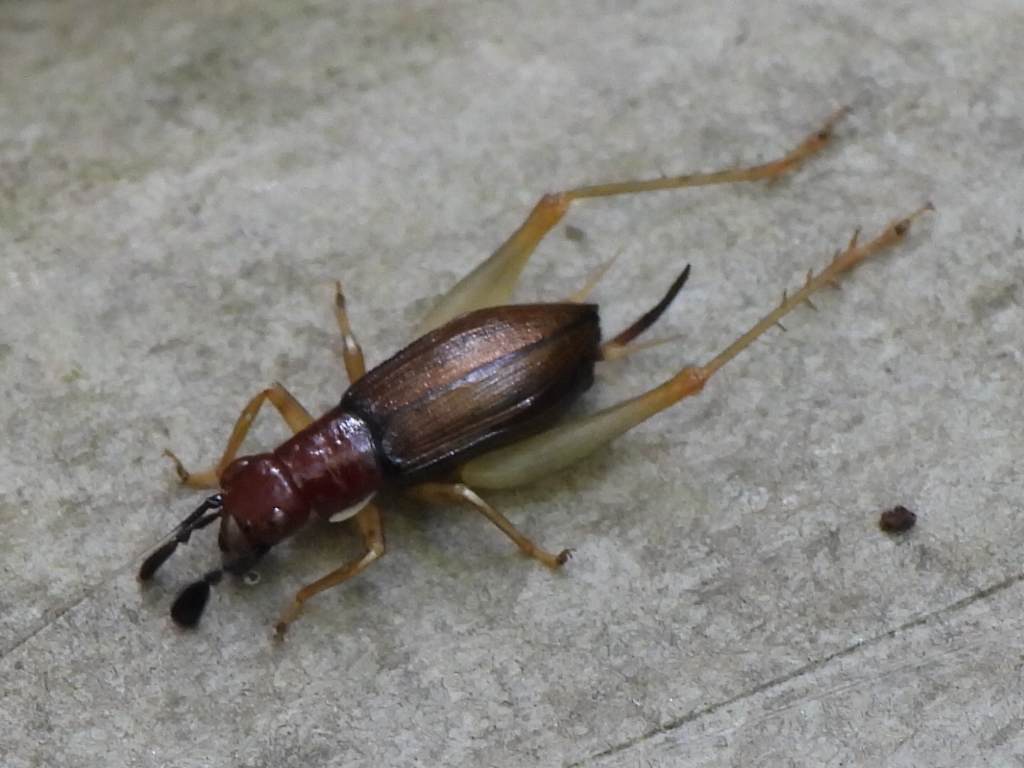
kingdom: Animalia
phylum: Arthropoda
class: Insecta
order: Orthoptera
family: Trigonidiidae
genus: Phyllopalpus
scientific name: Phyllopalpus pulchellus
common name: Handsome trig
